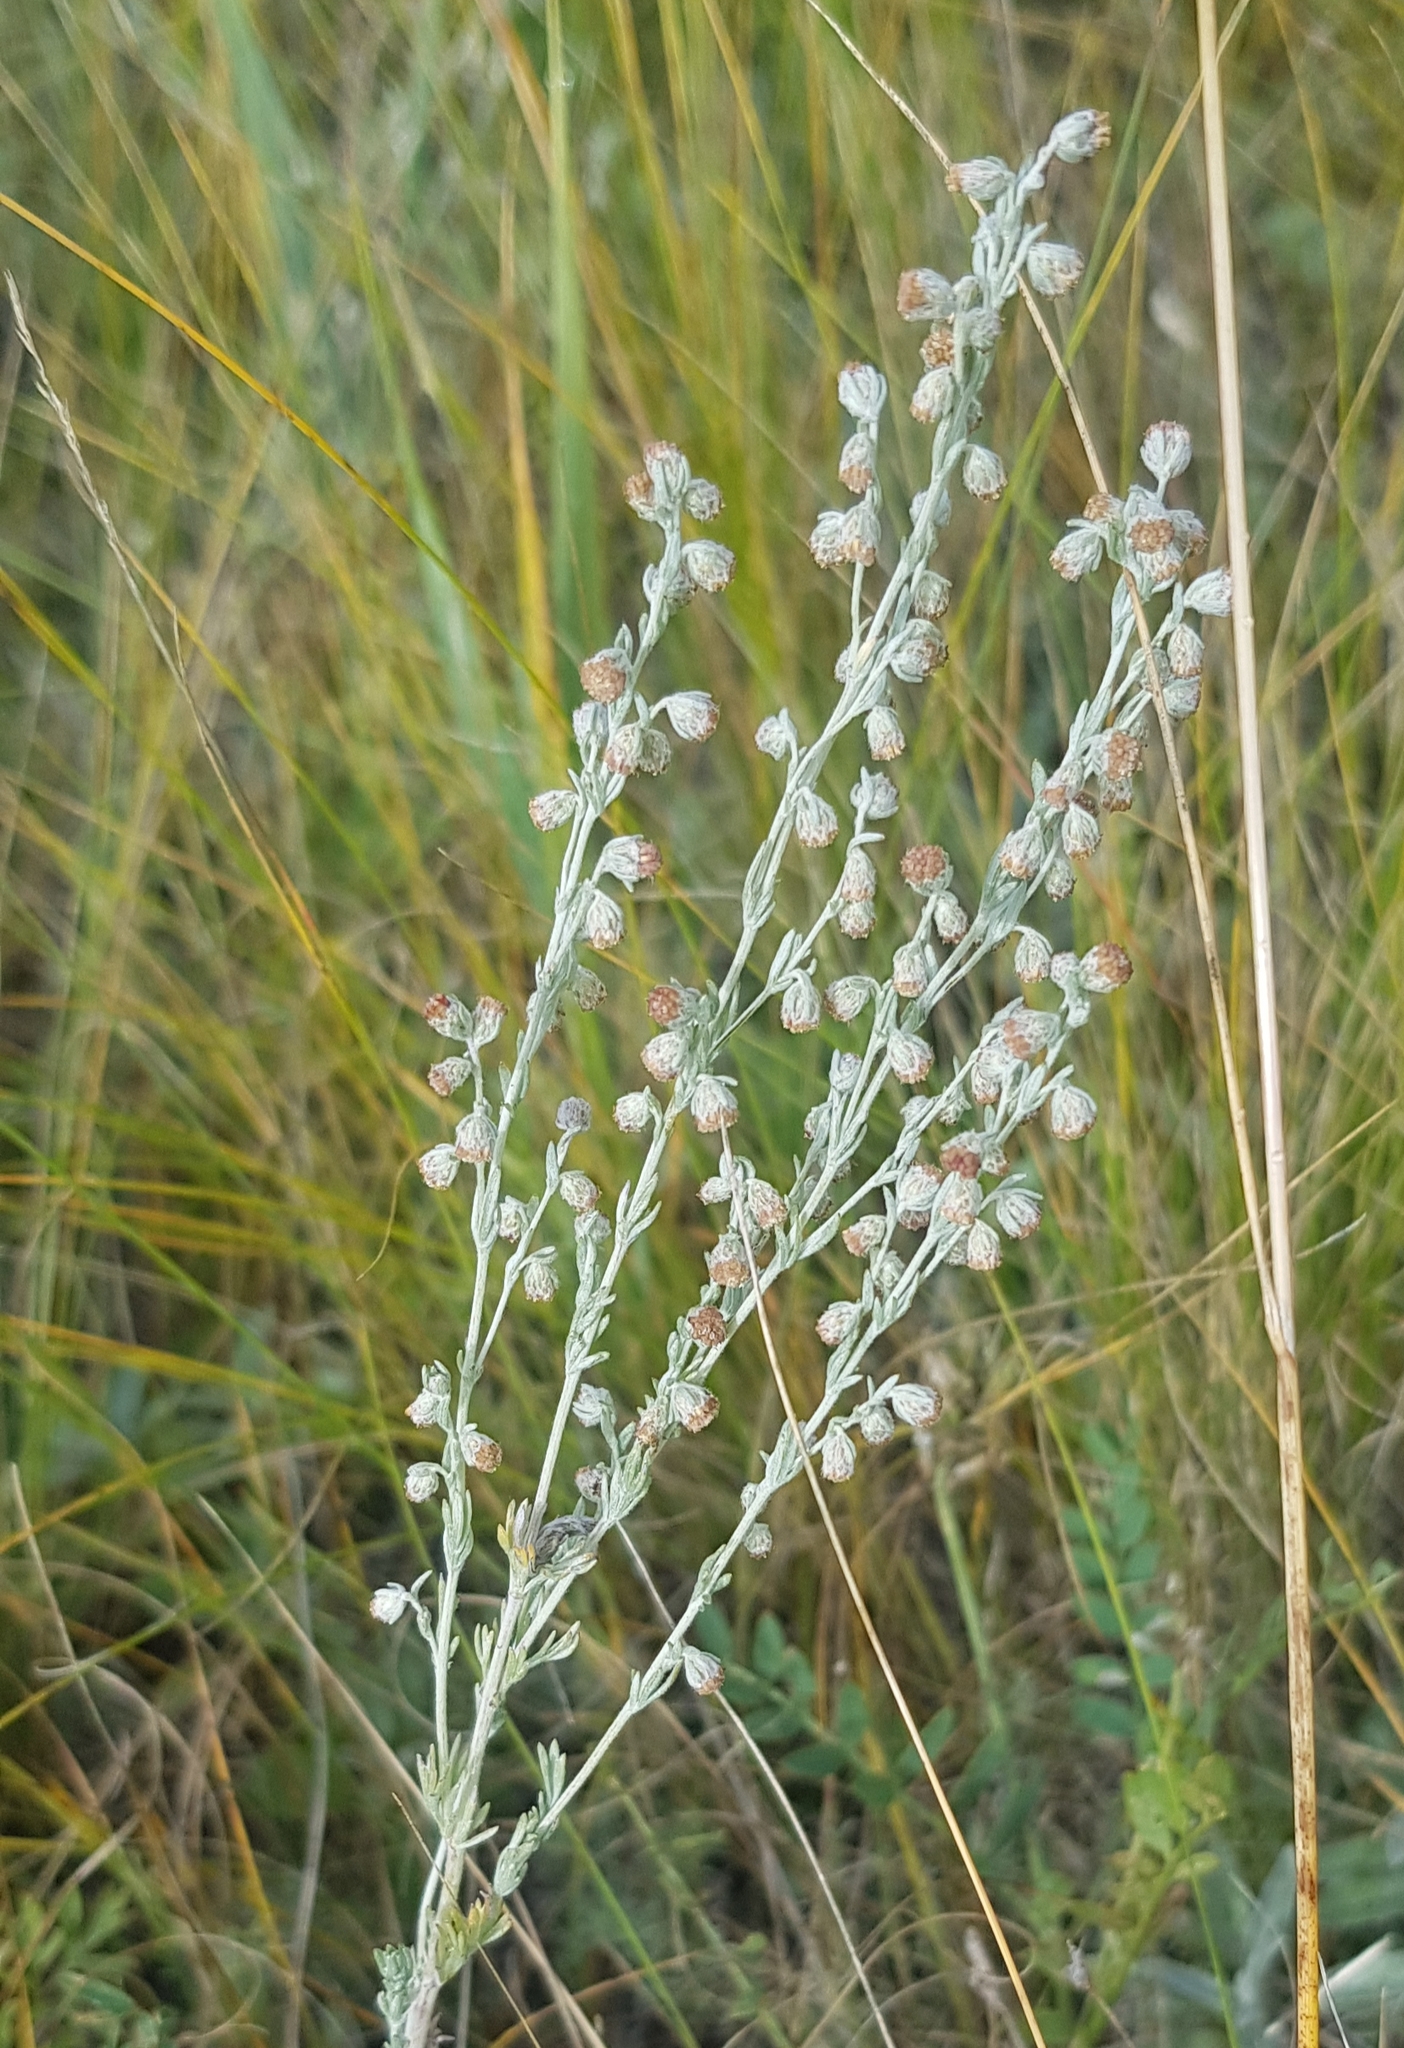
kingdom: Plantae
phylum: Tracheophyta
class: Magnoliopsida
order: Asterales
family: Asteraceae
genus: Artemisia
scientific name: Artemisia frigida
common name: Prairie sagewort
